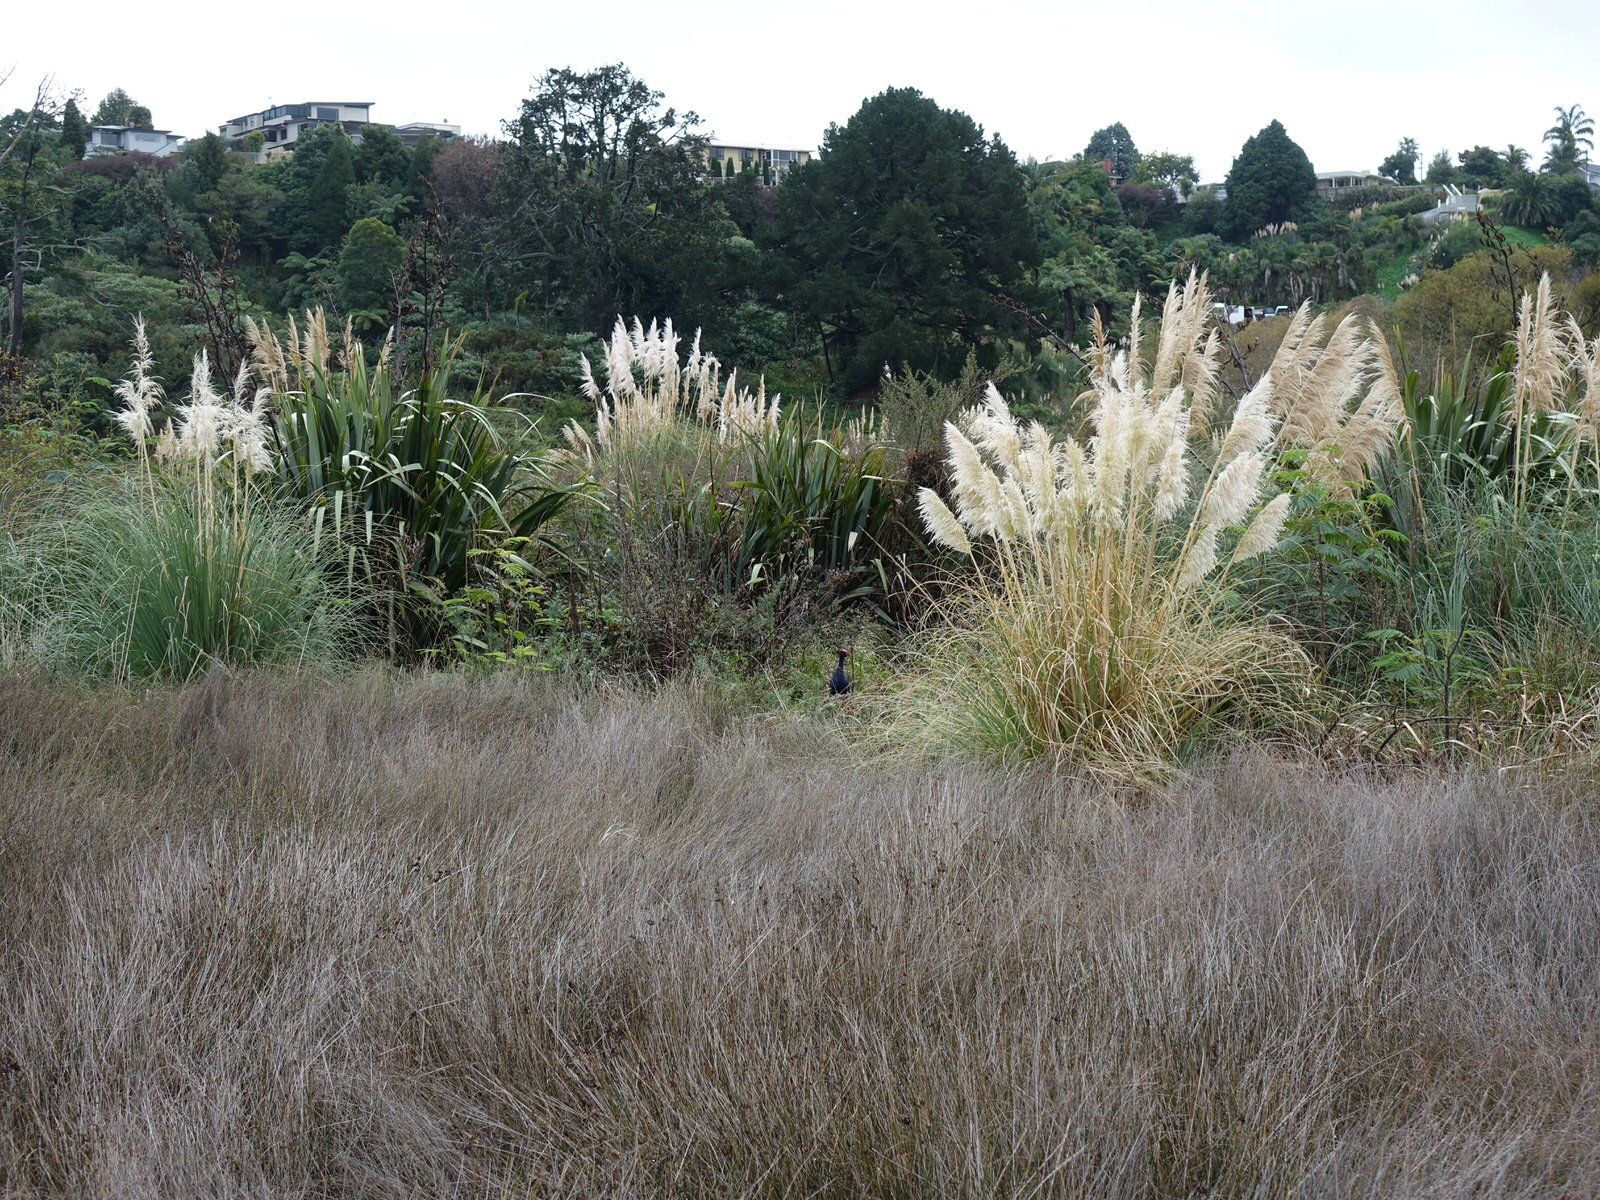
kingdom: Animalia
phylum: Chordata
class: Aves
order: Gruiformes
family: Rallidae
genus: Porphyrio
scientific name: Porphyrio melanotus
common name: Australasian swamphen
